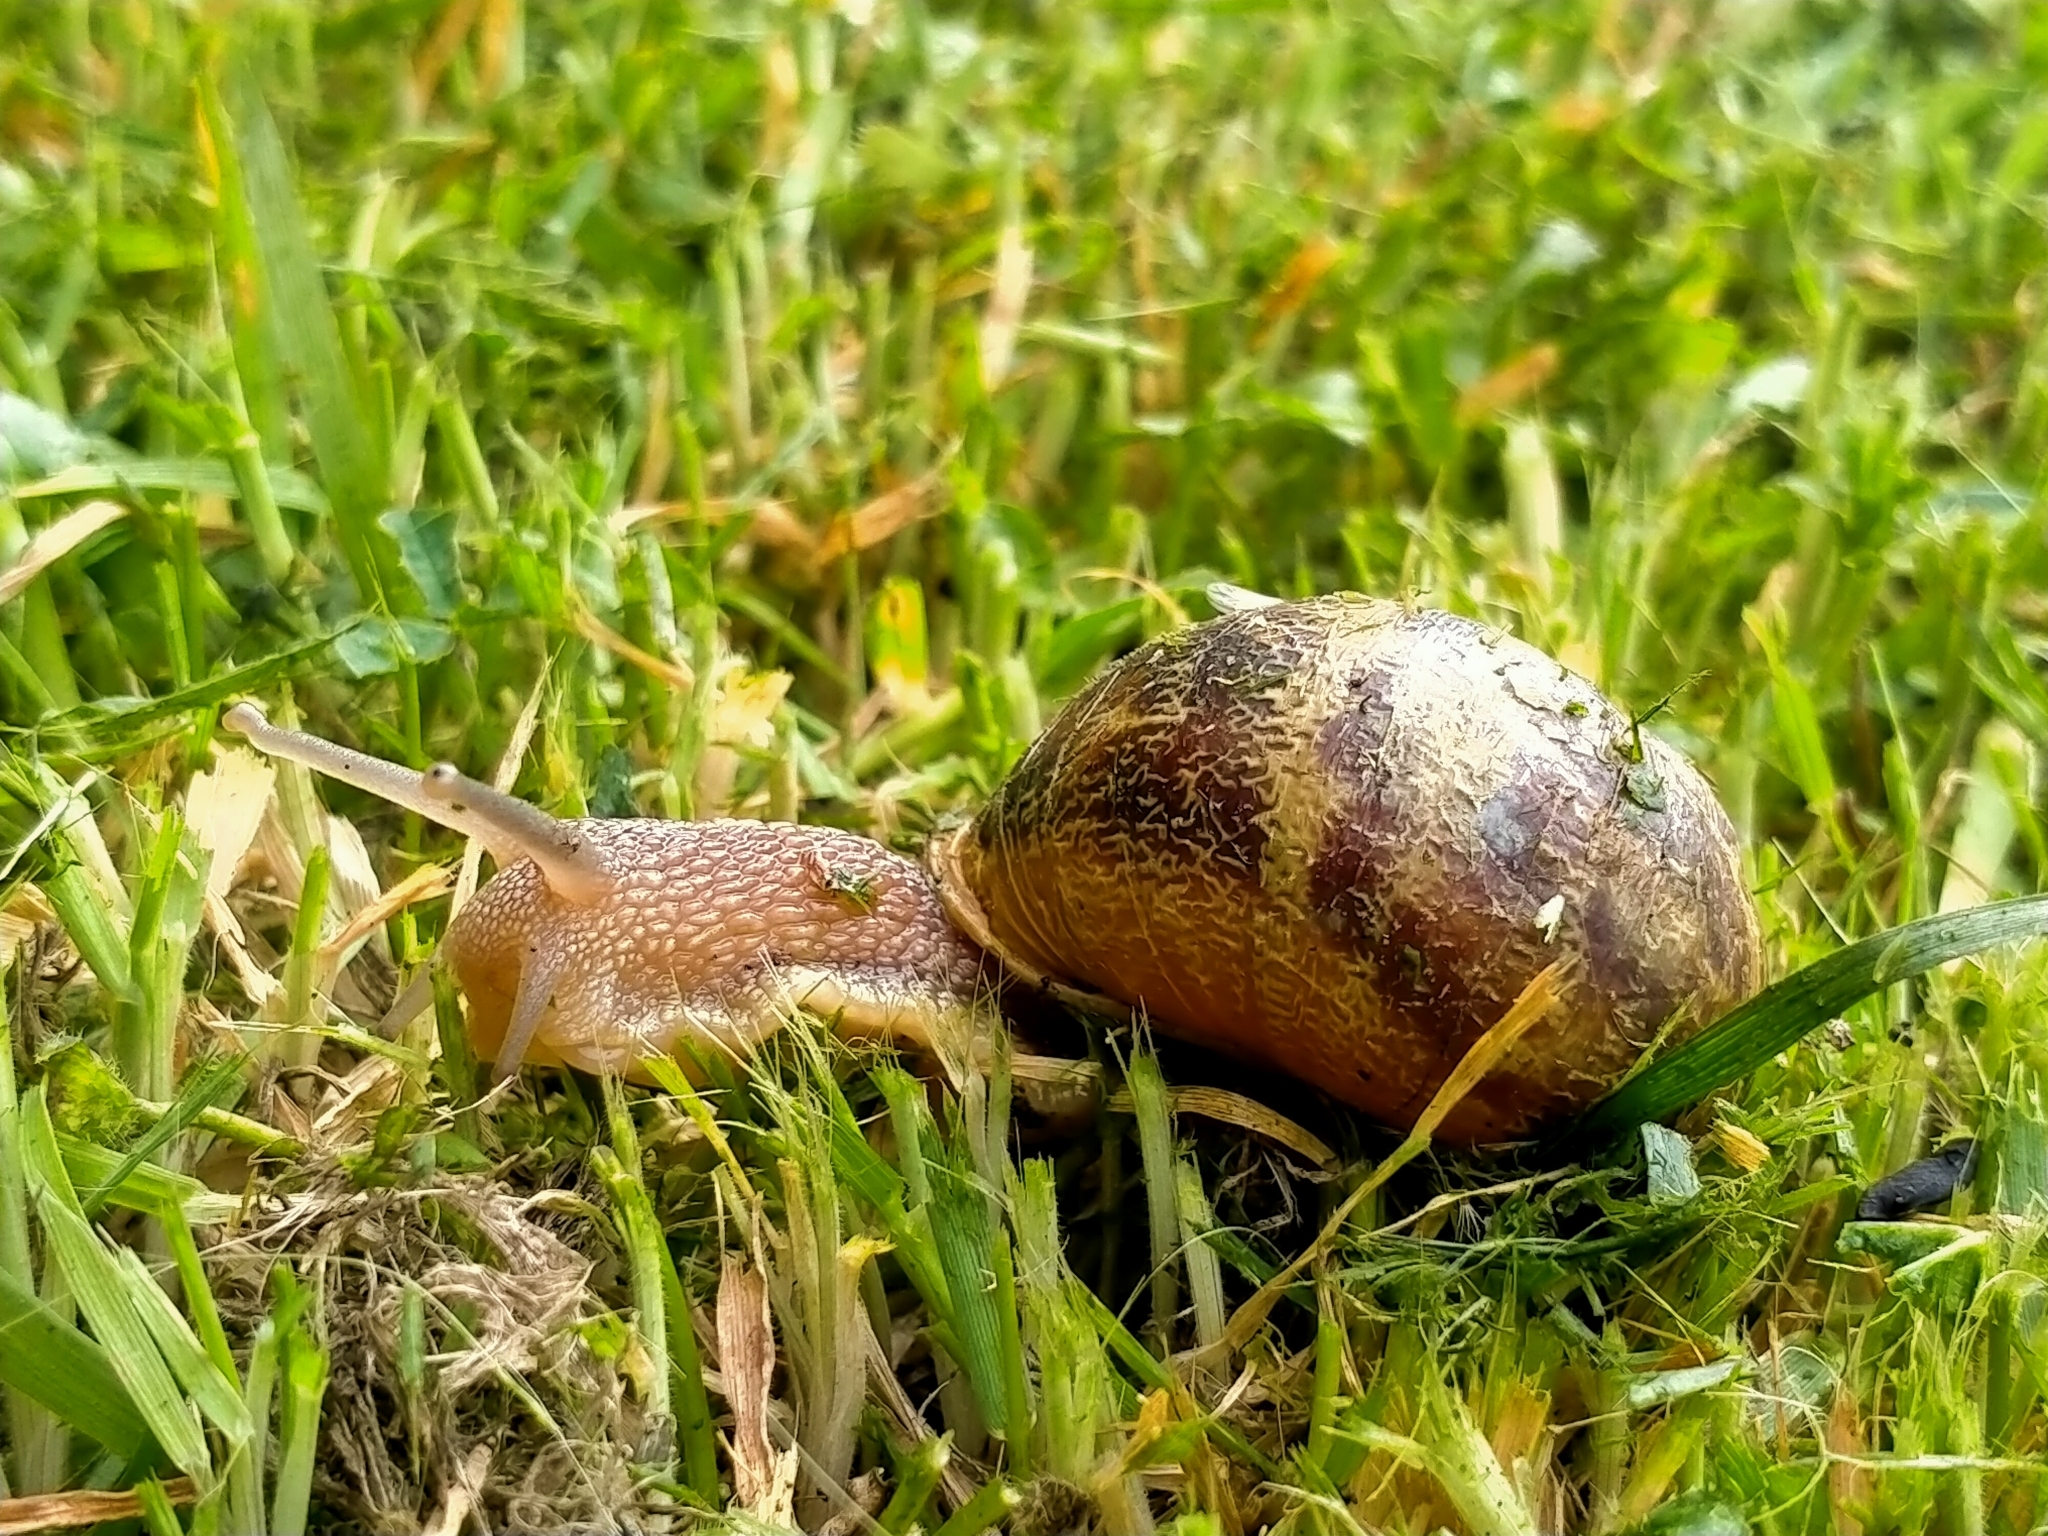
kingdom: Animalia
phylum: Mollusca
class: Gastropoda
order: Stylommatophora
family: Helicidae
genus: Cornu
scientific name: Cornu aspersum
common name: Brown garden snail
